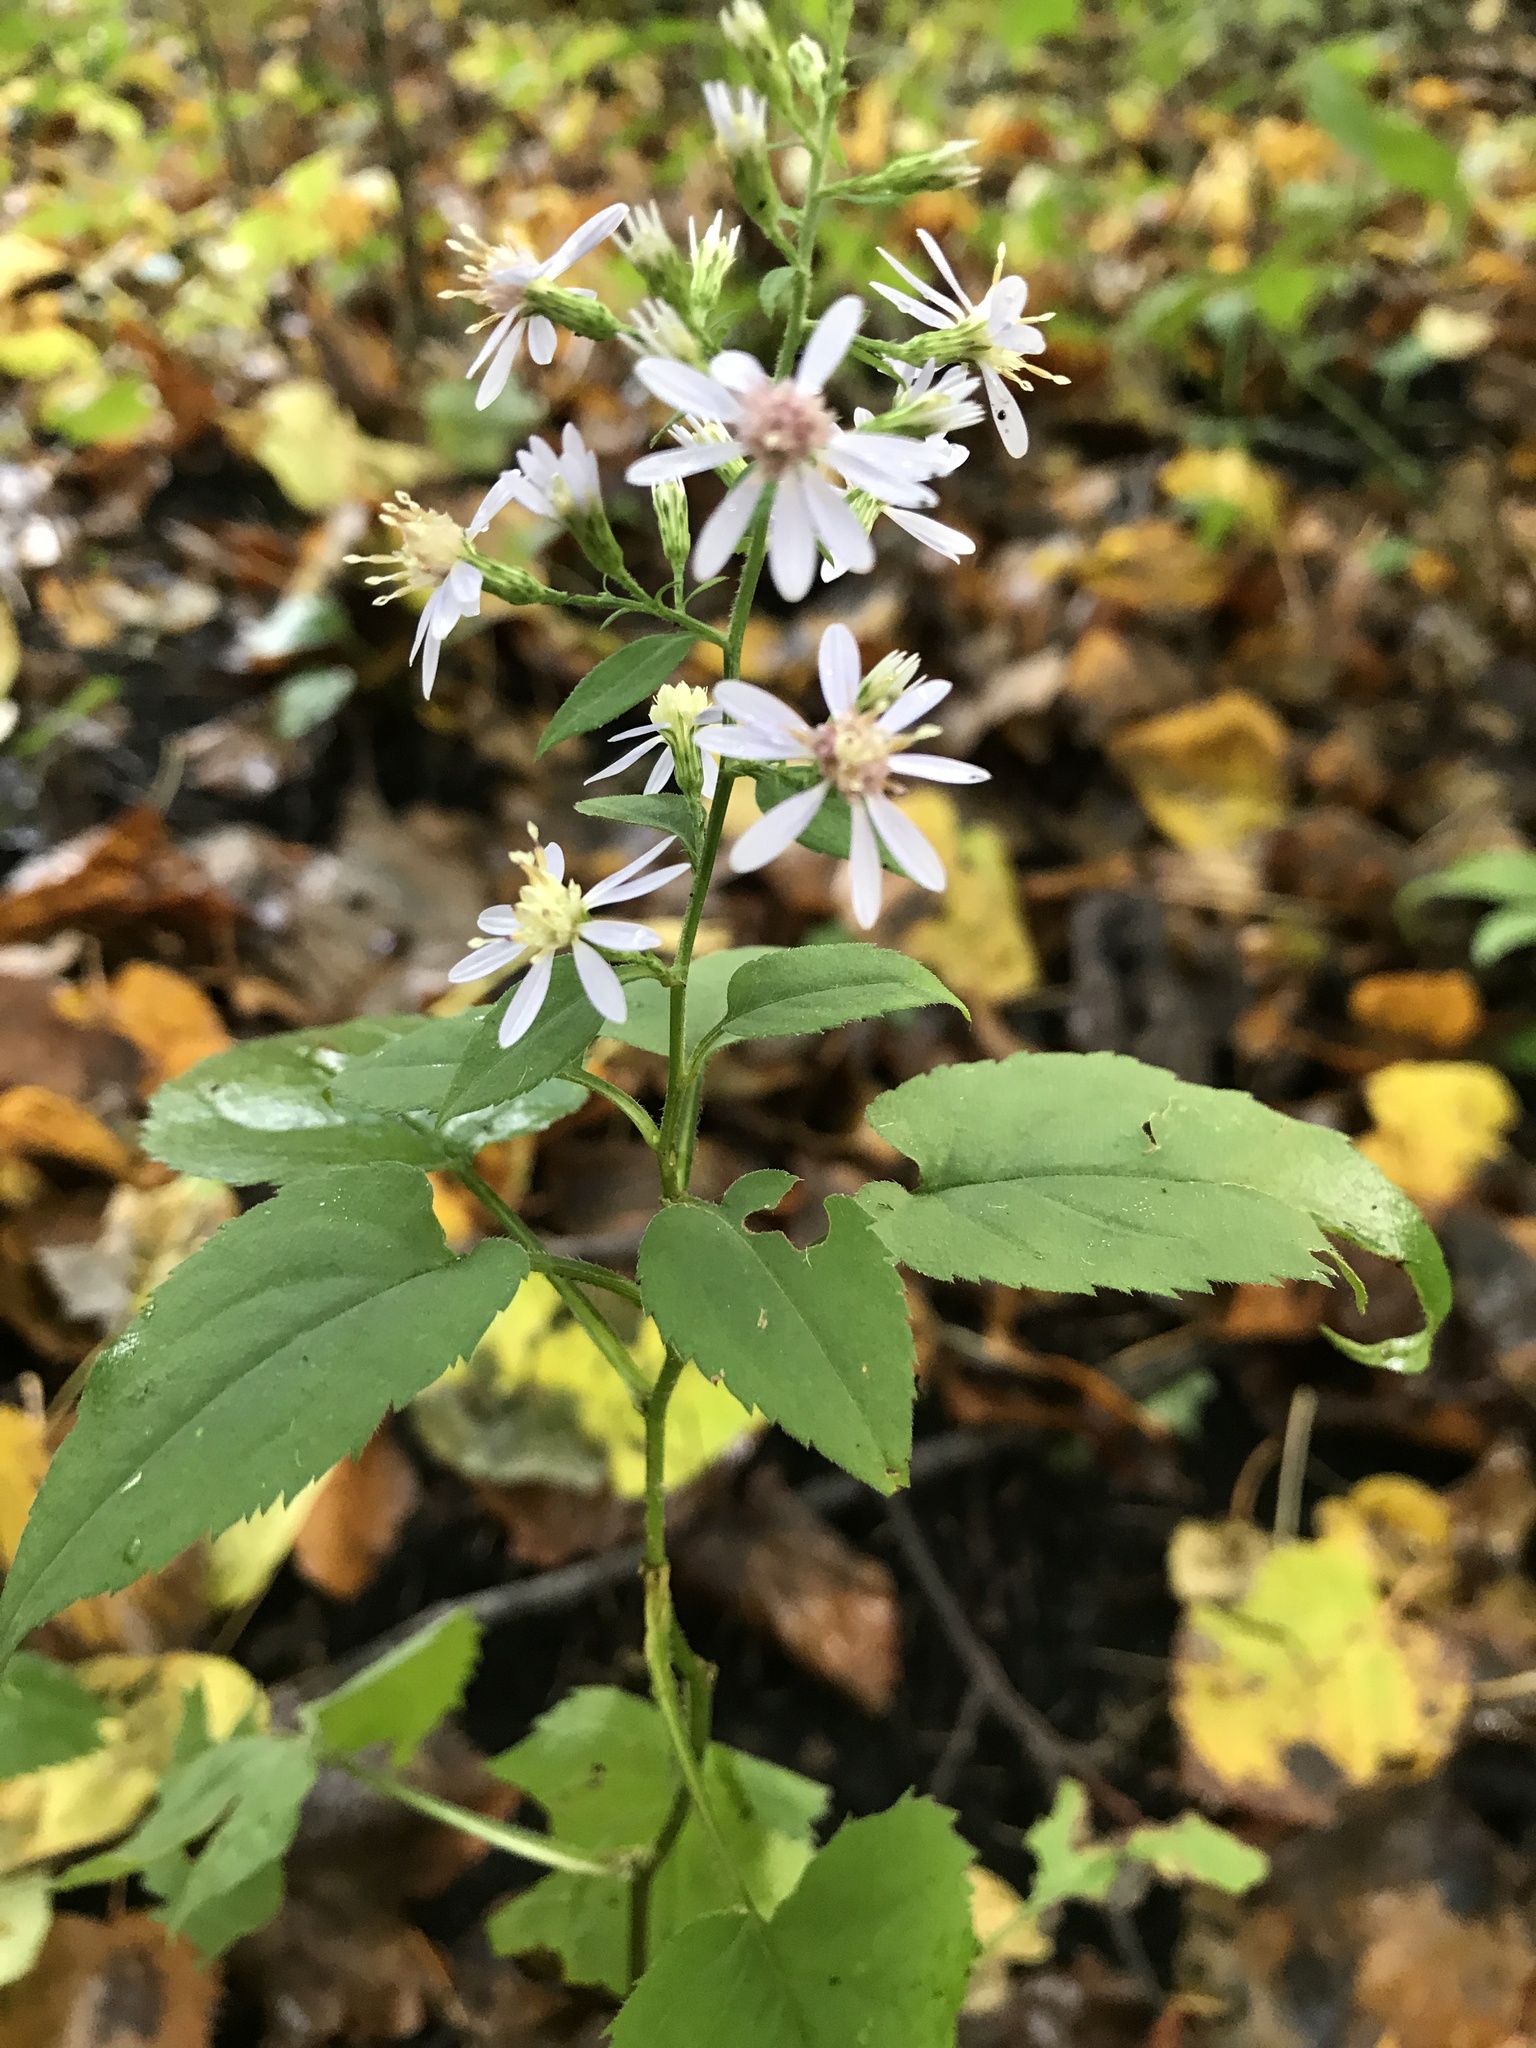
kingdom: Plantae
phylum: Tracheophyta
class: Magnoliopsida
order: Asterales
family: Asteraceae
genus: Symphyotrichum
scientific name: Symphyotrichum cordifolium
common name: Beeweed
